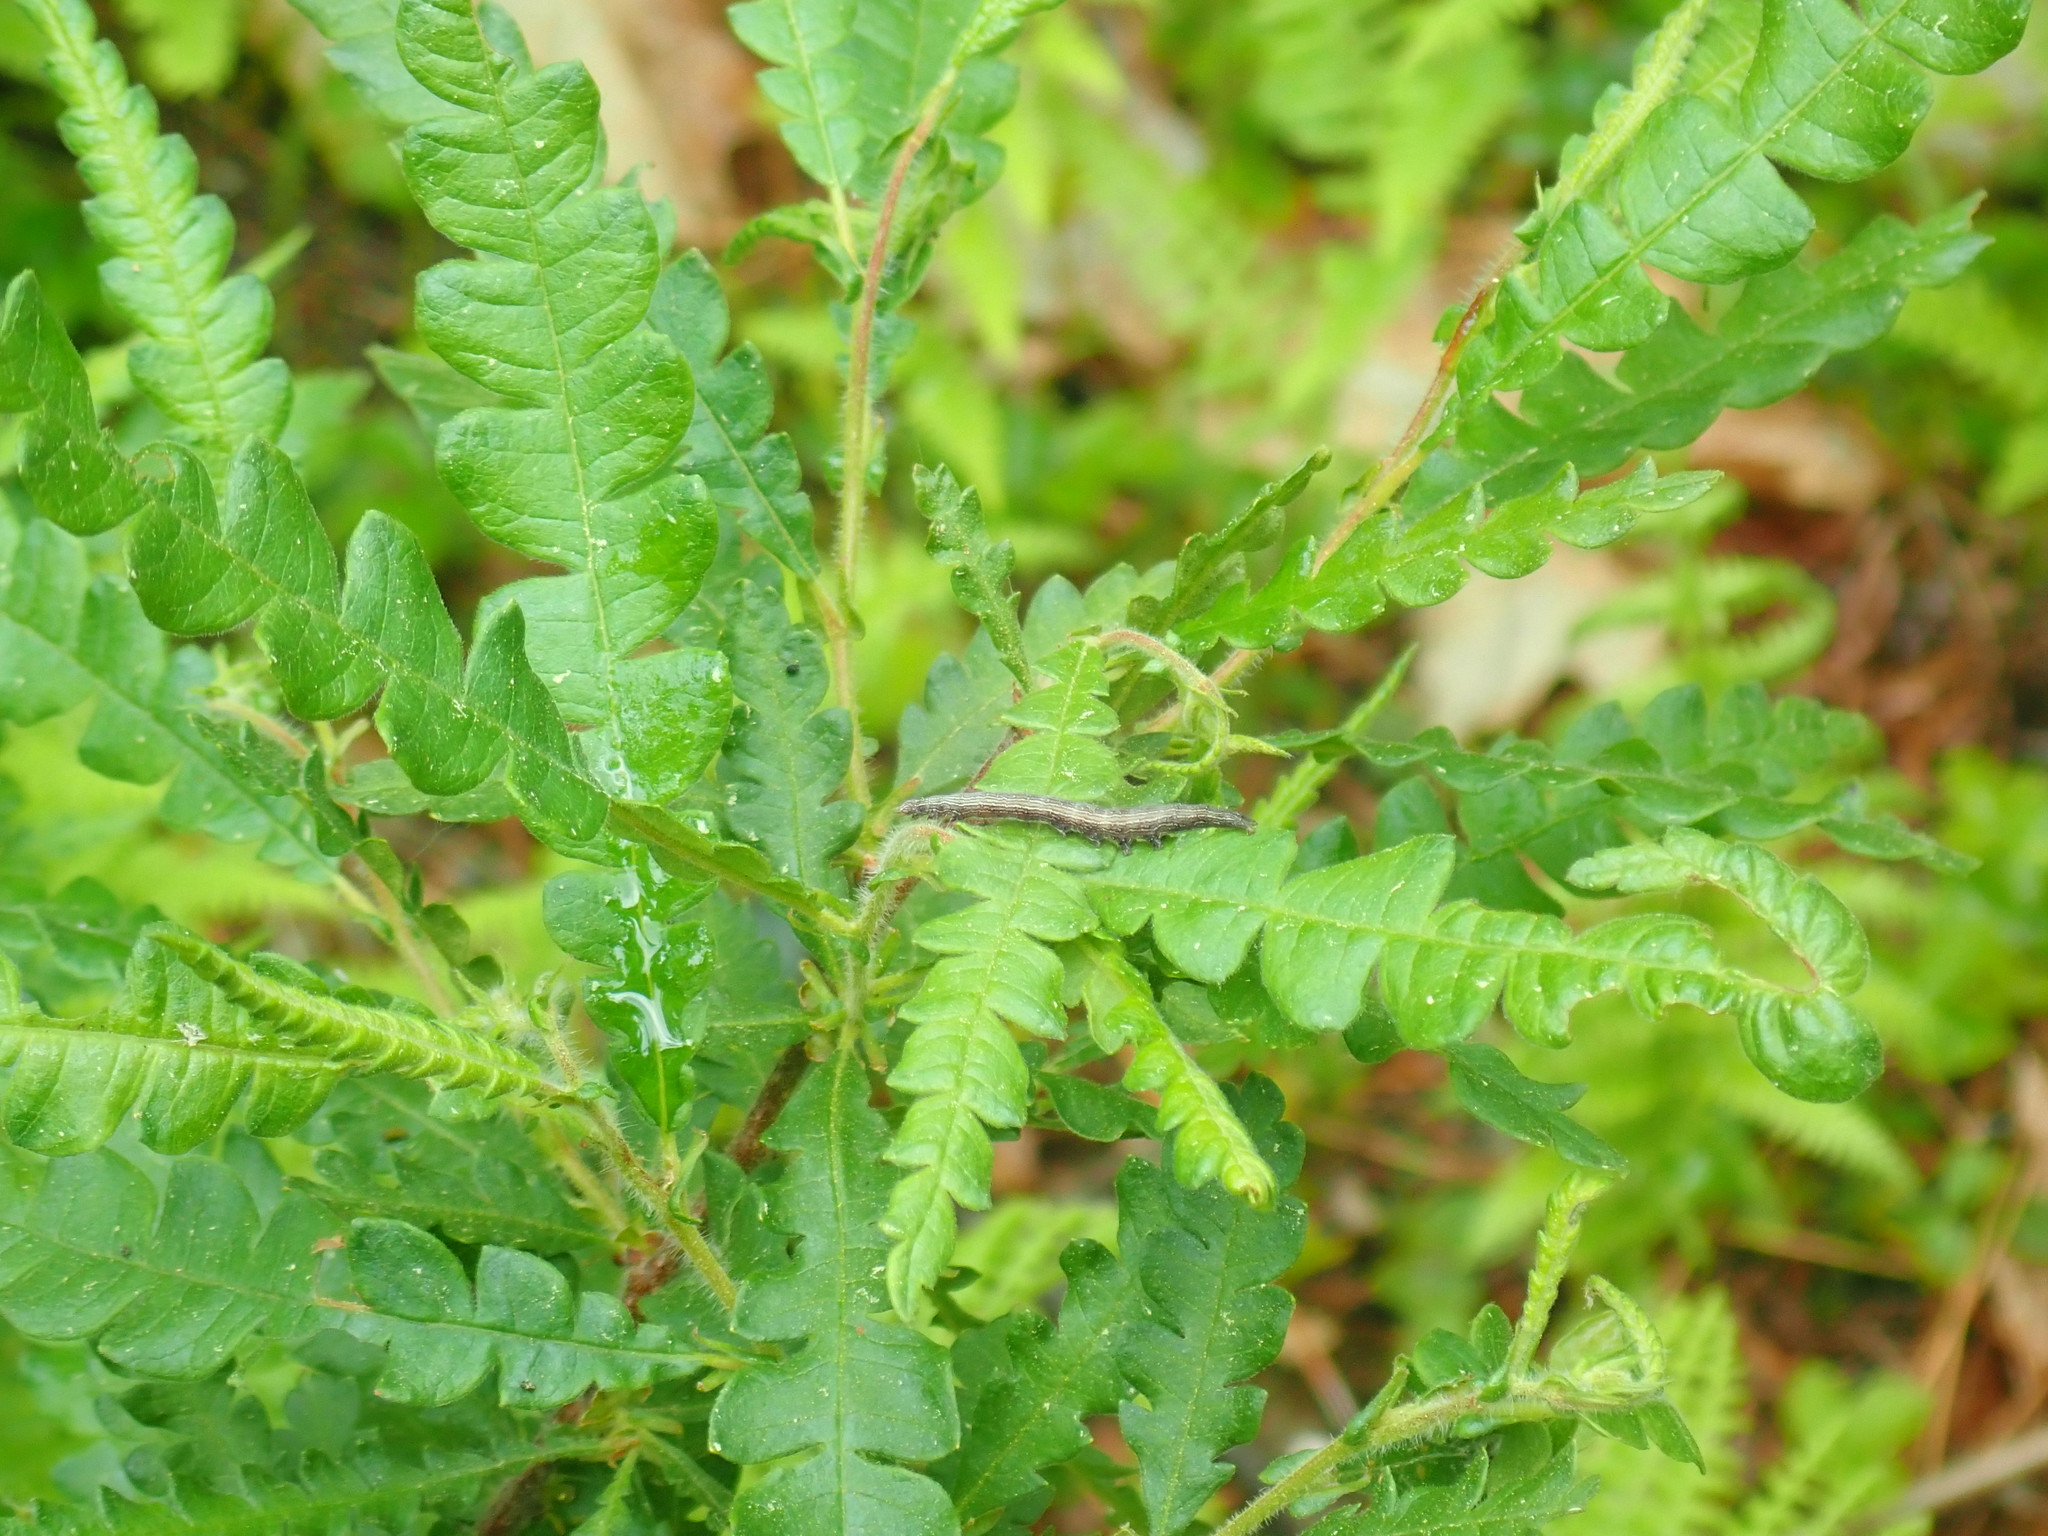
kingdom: Animalia
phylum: Arthropoda
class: Insecta
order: Lepidoptera
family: Erebidae
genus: Catocala
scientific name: Catocala antinympha
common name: Sweetfern underwing
